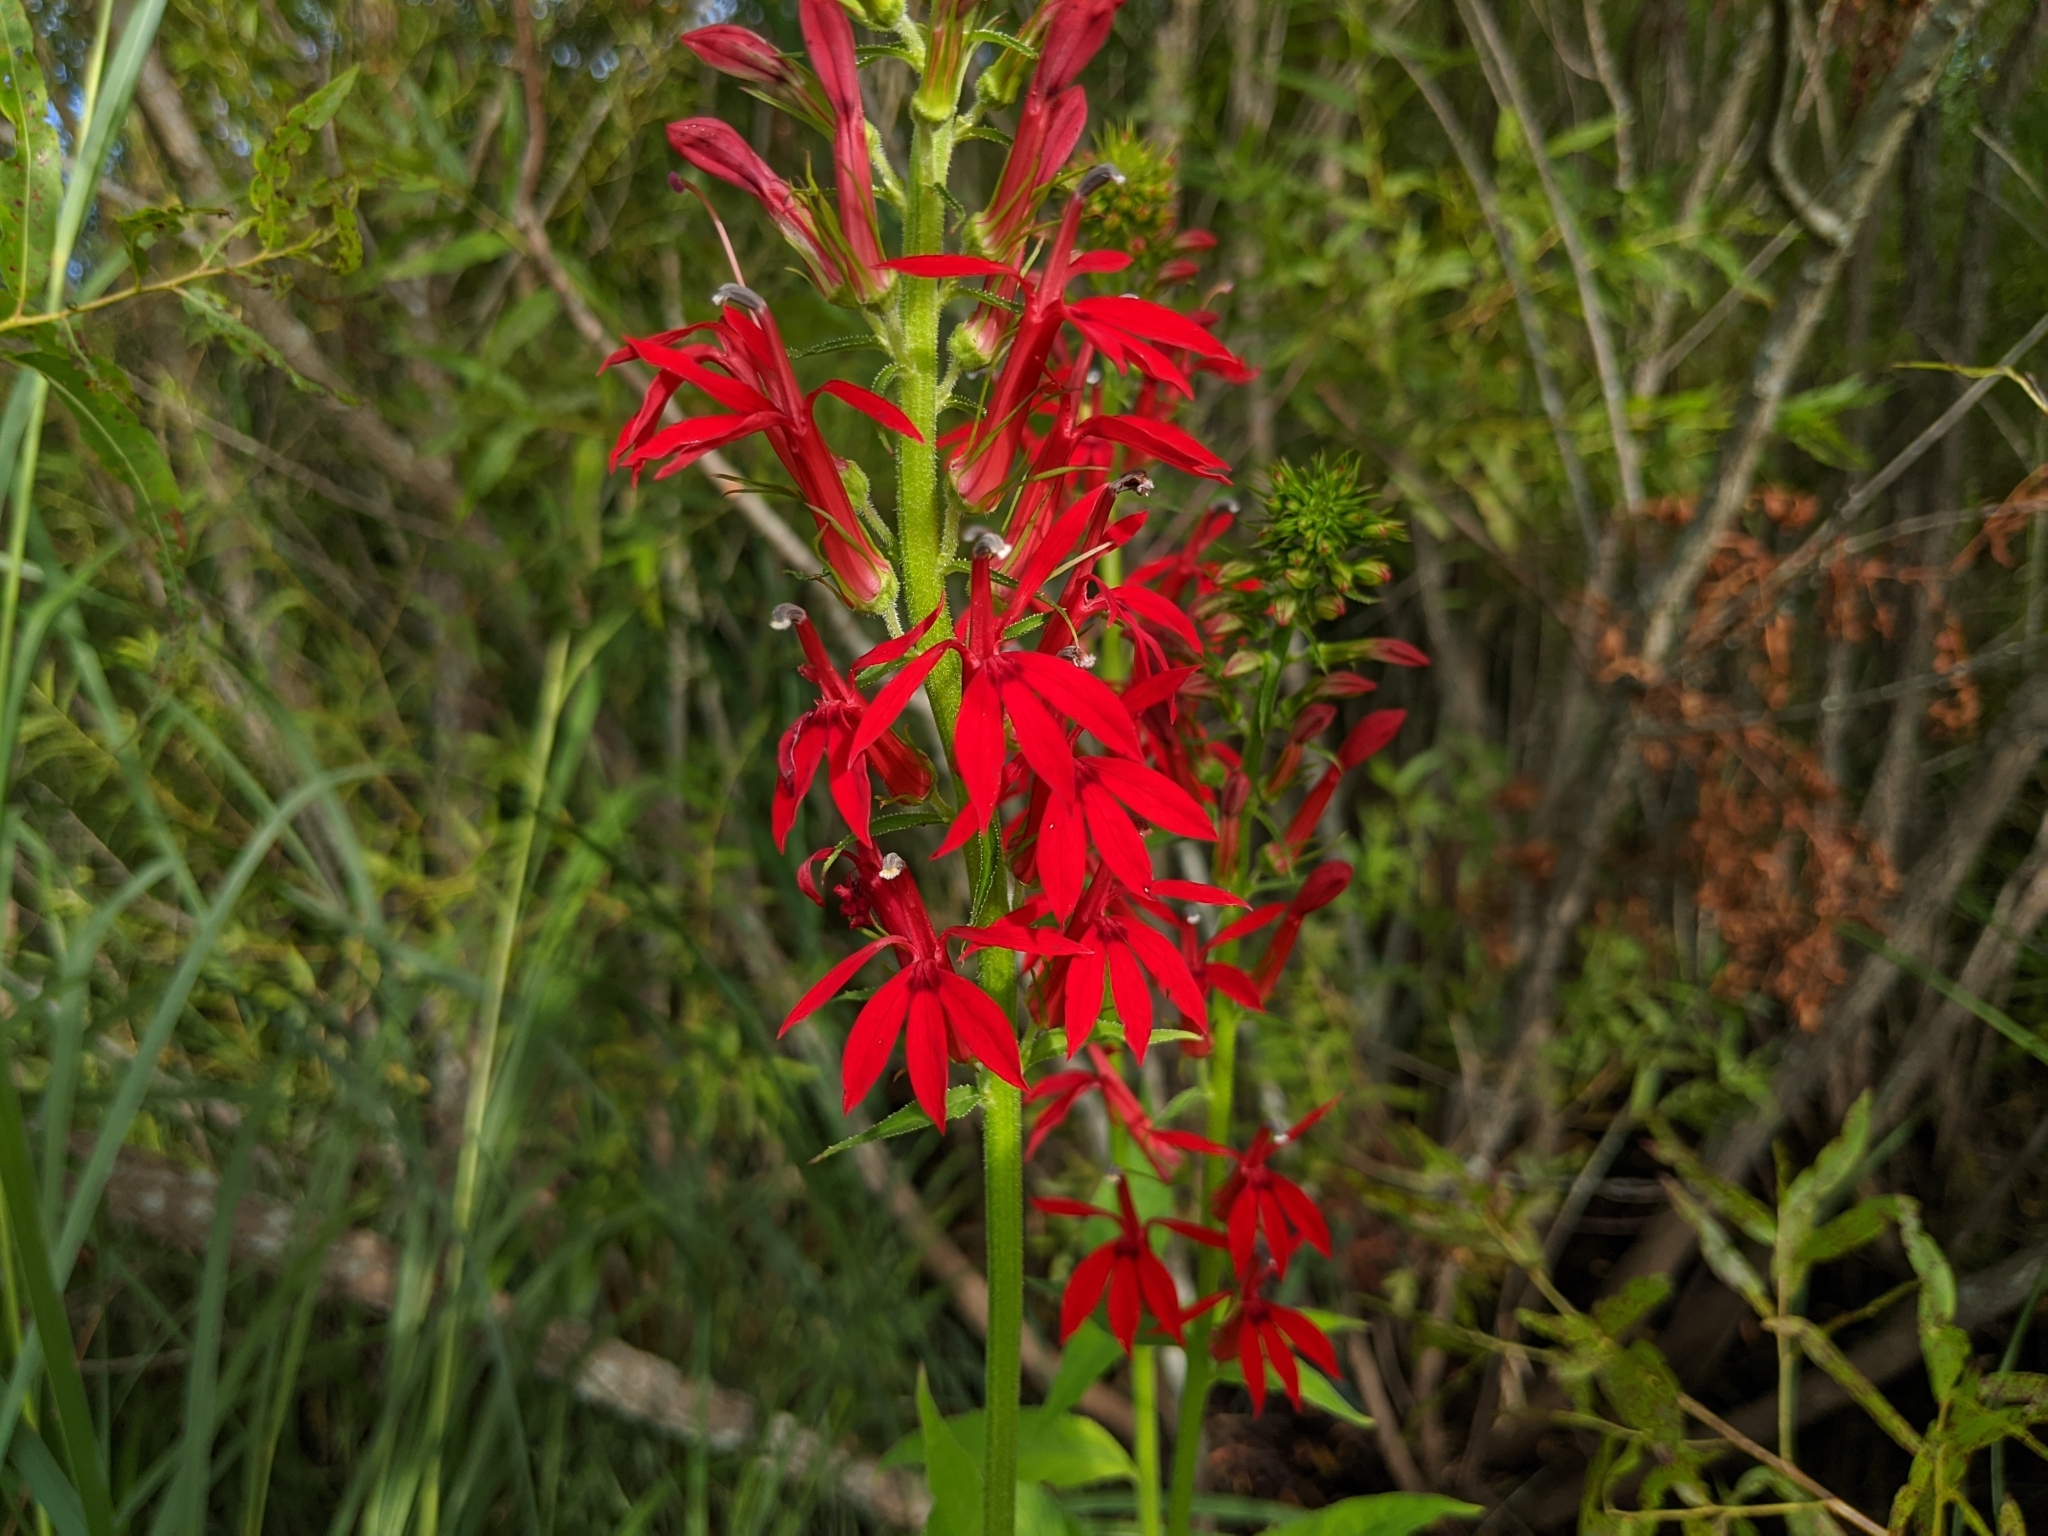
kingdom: Plantae
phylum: Tracheophyta
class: Magnoliopsida
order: Asterales
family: Campanulaceae
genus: Lobelia
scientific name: Lobelia cardinalis
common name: Cardinal flower
